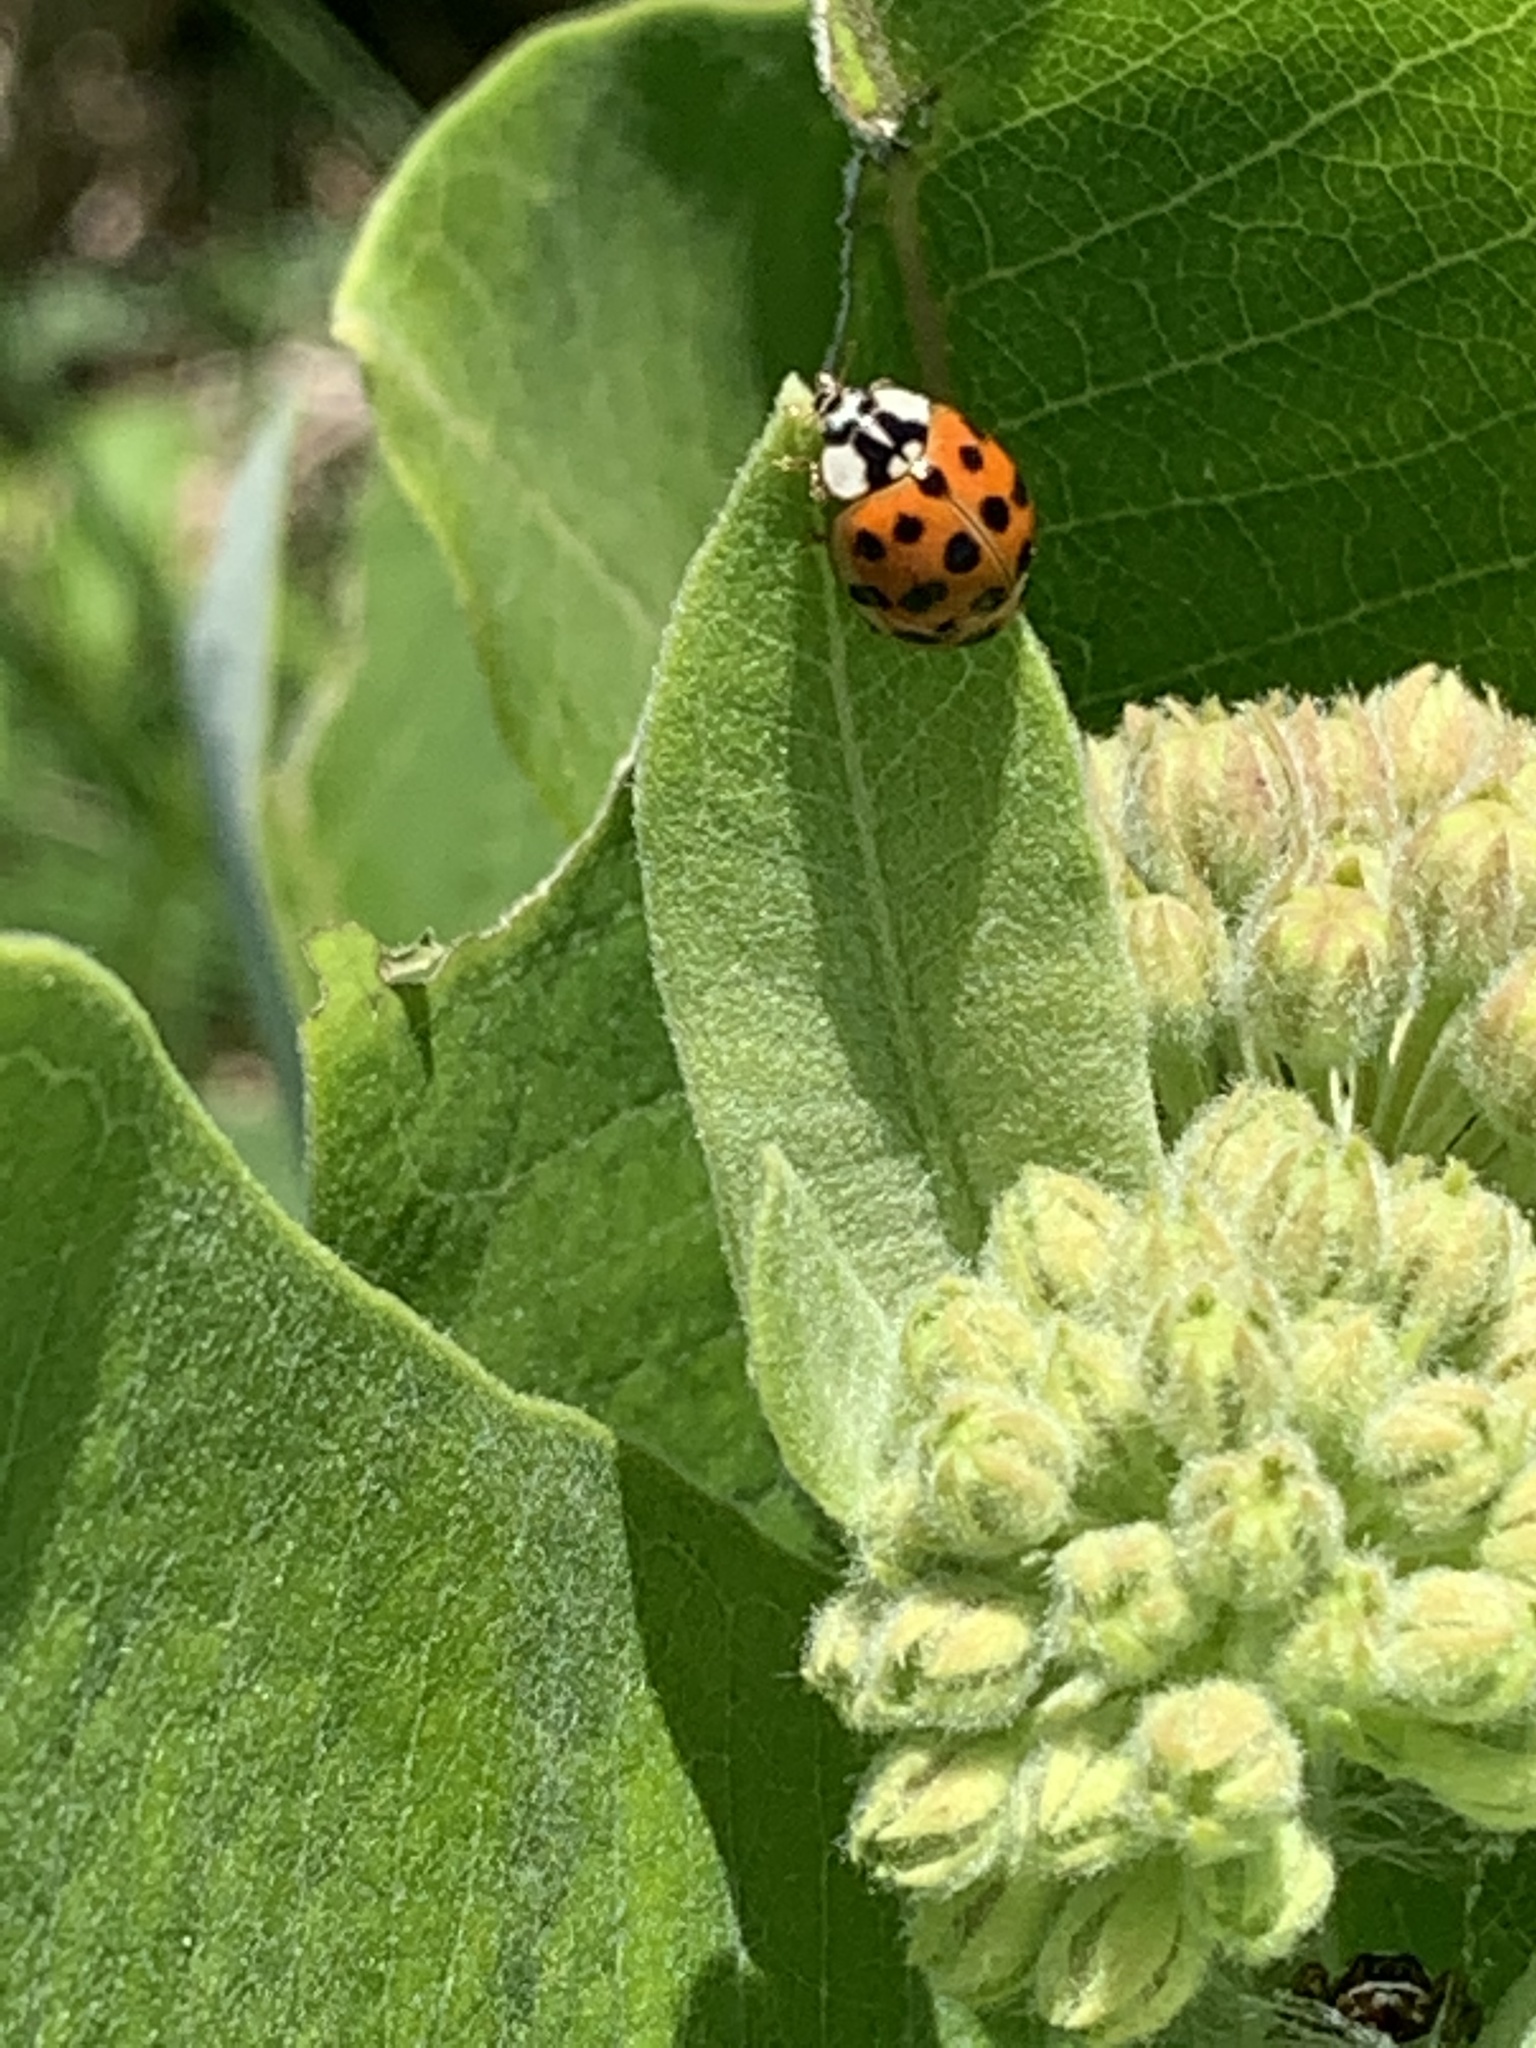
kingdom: Animalia
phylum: Arthropoda
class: Insecta
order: Coleoptera
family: Coccinellidae
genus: Harmonia
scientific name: Harmonia axyridis
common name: Harlequin ladybird
